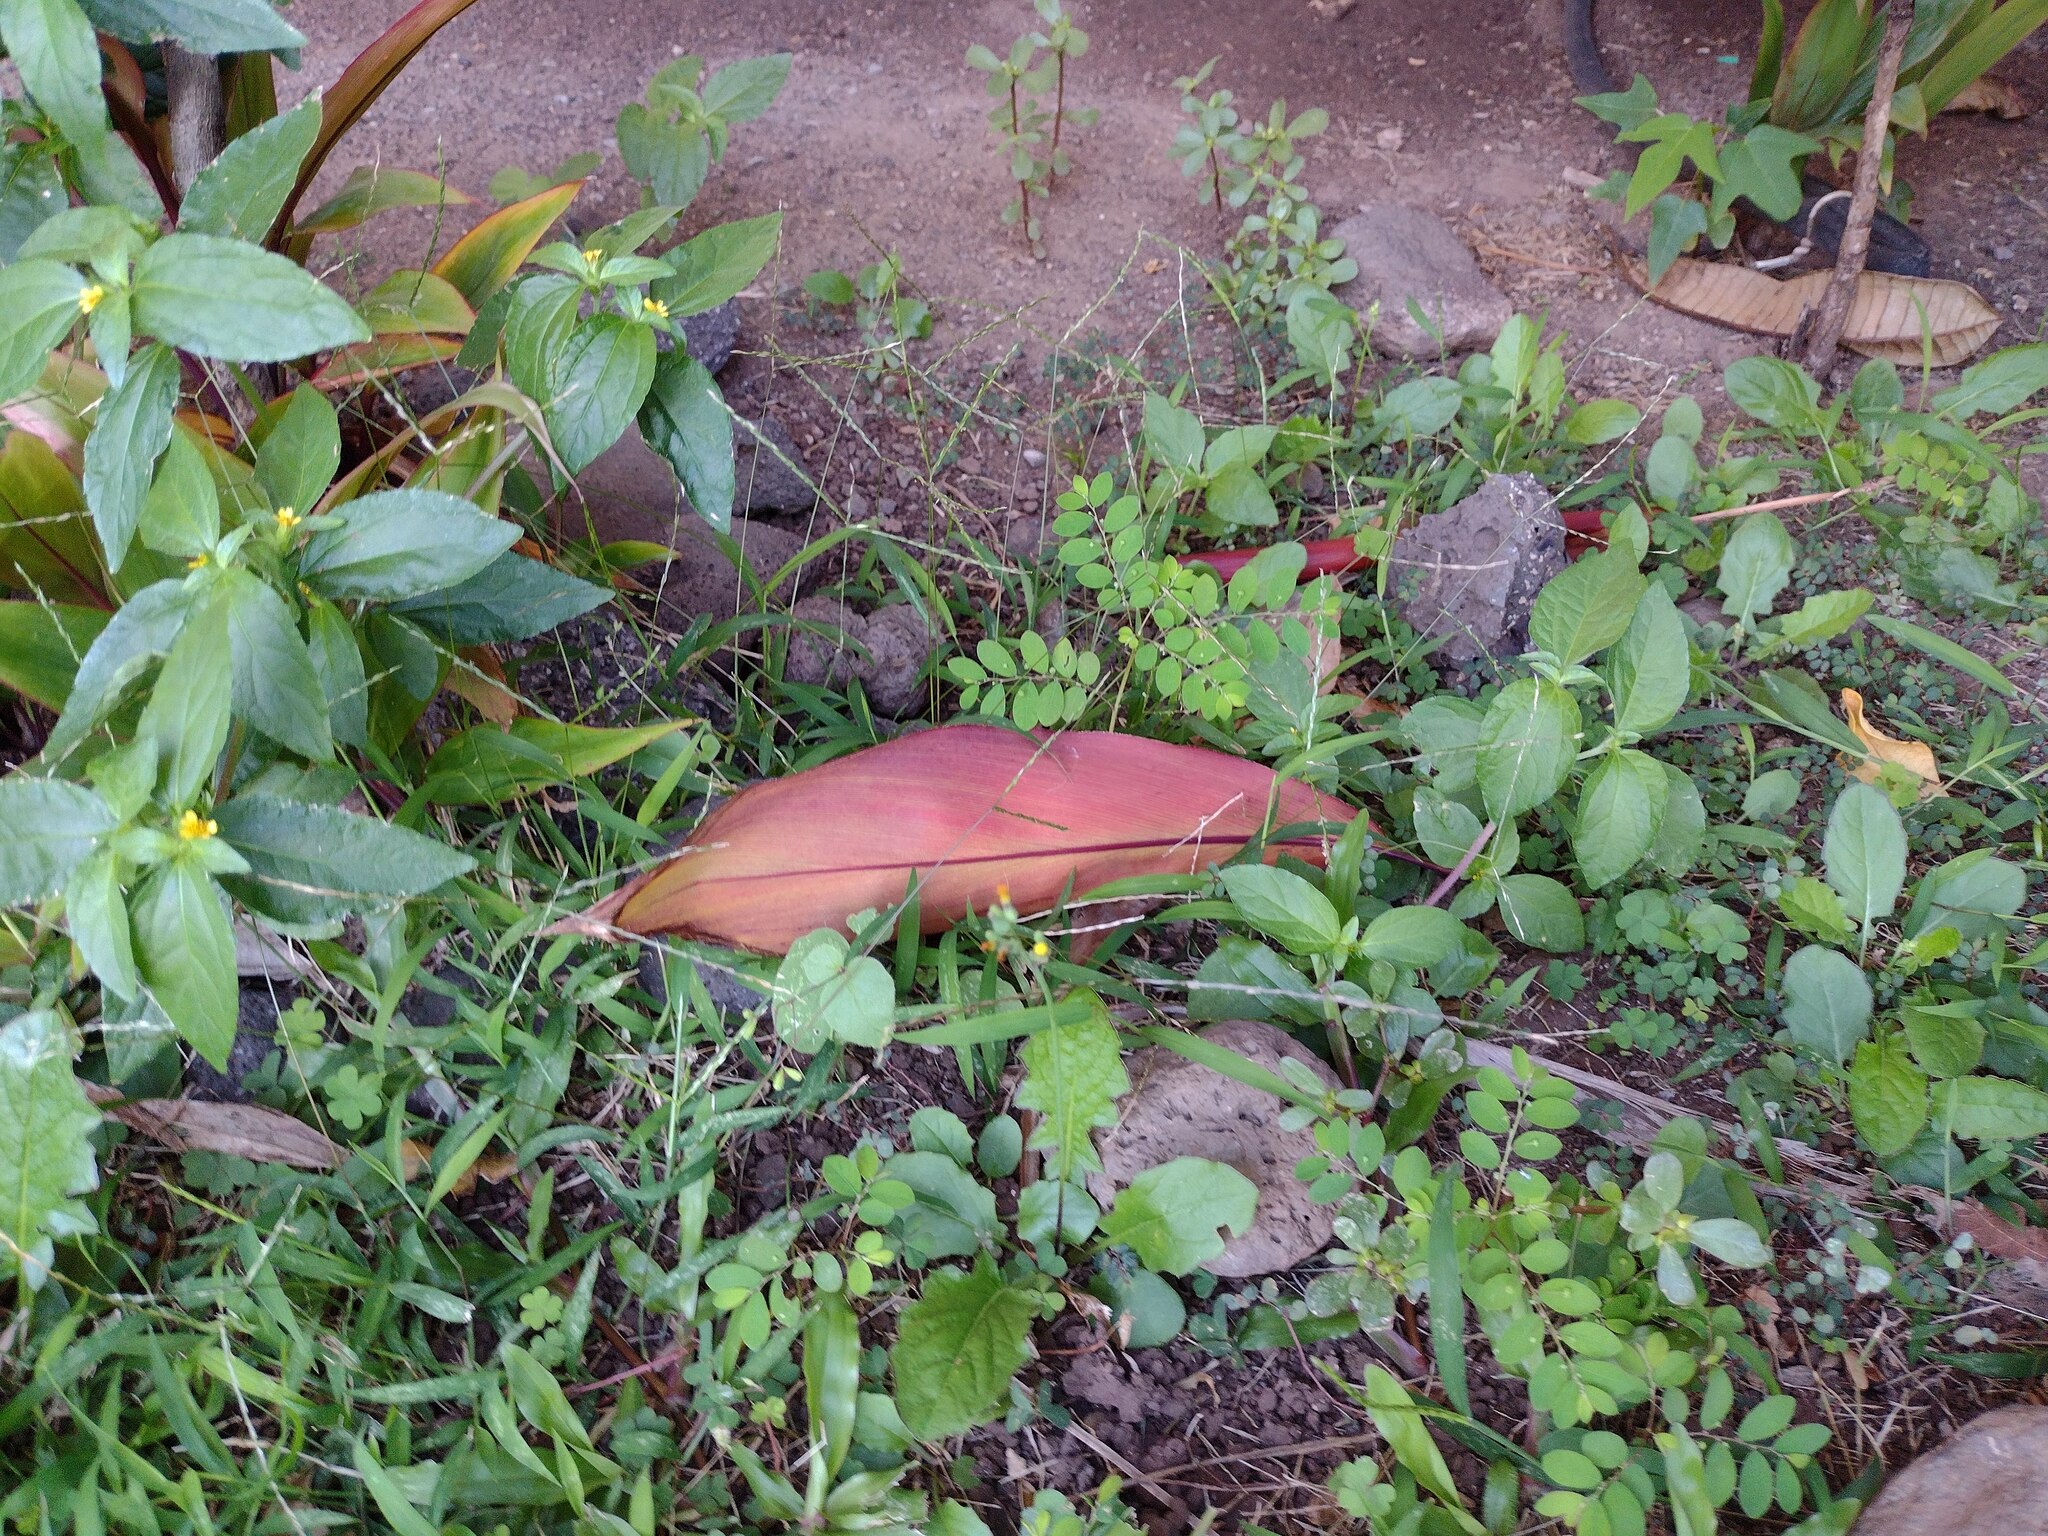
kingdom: Plantae
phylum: Tracheophyta
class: Magnoliopsida
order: Asterales
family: Asteraceae
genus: Synedrella
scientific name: Synedrella nodiflora
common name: Nodeweed
